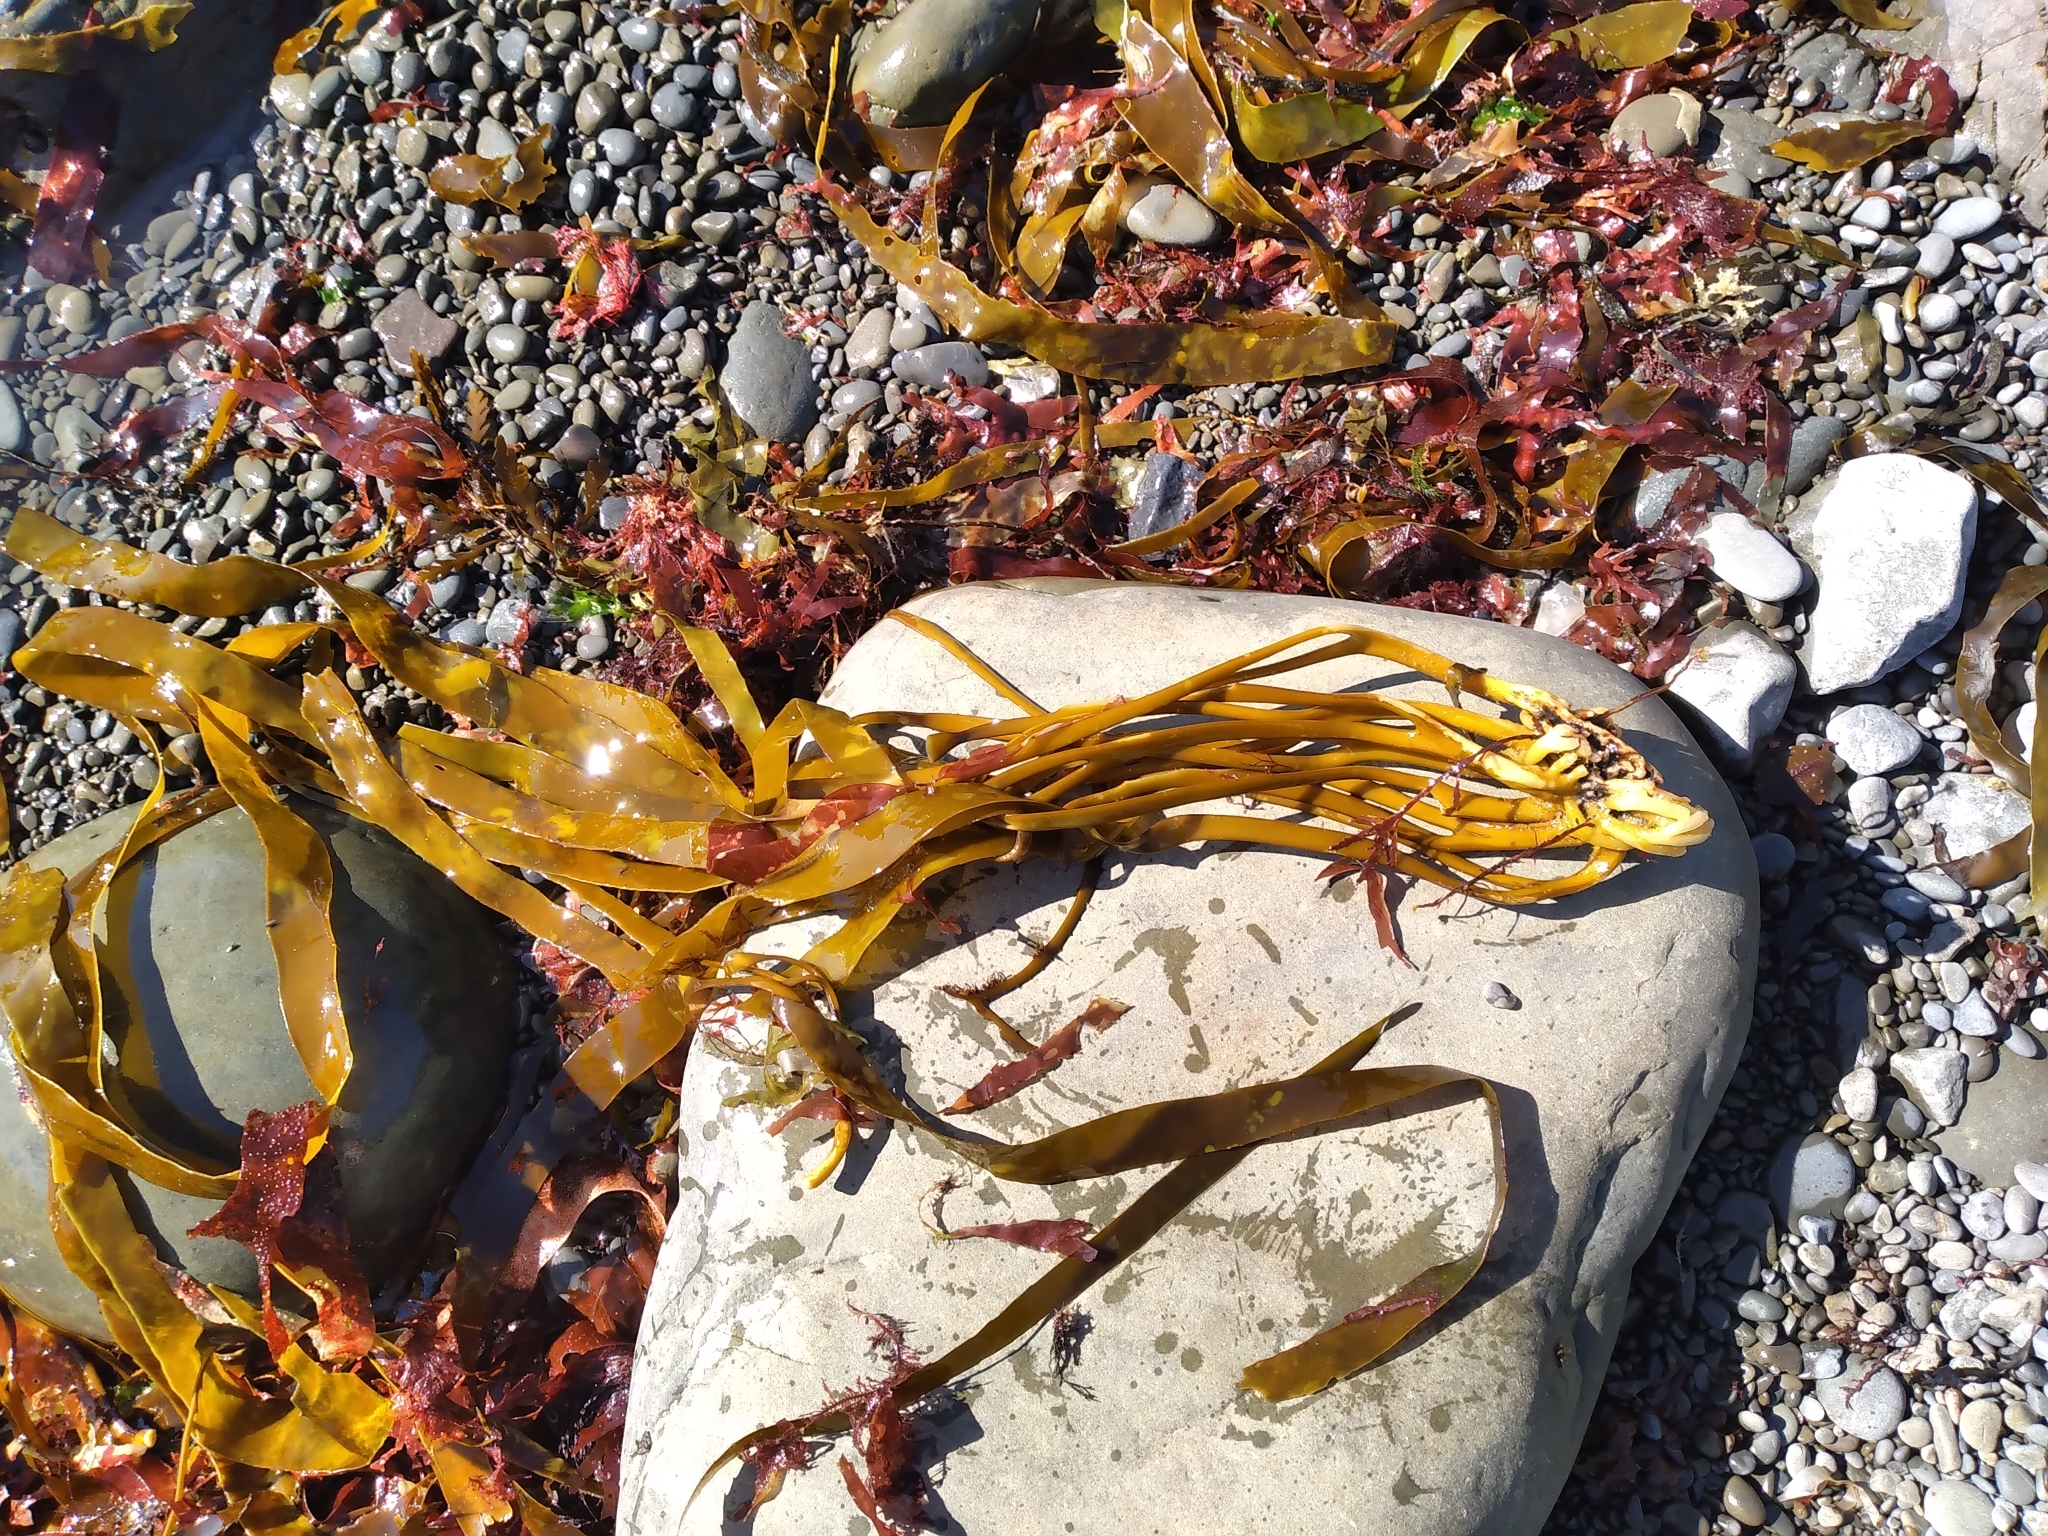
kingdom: Chromista
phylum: Ochrophyta
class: Phaeophyceae
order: Laminariales
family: Lessoniaceae
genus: Lessonia
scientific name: Lessonia
